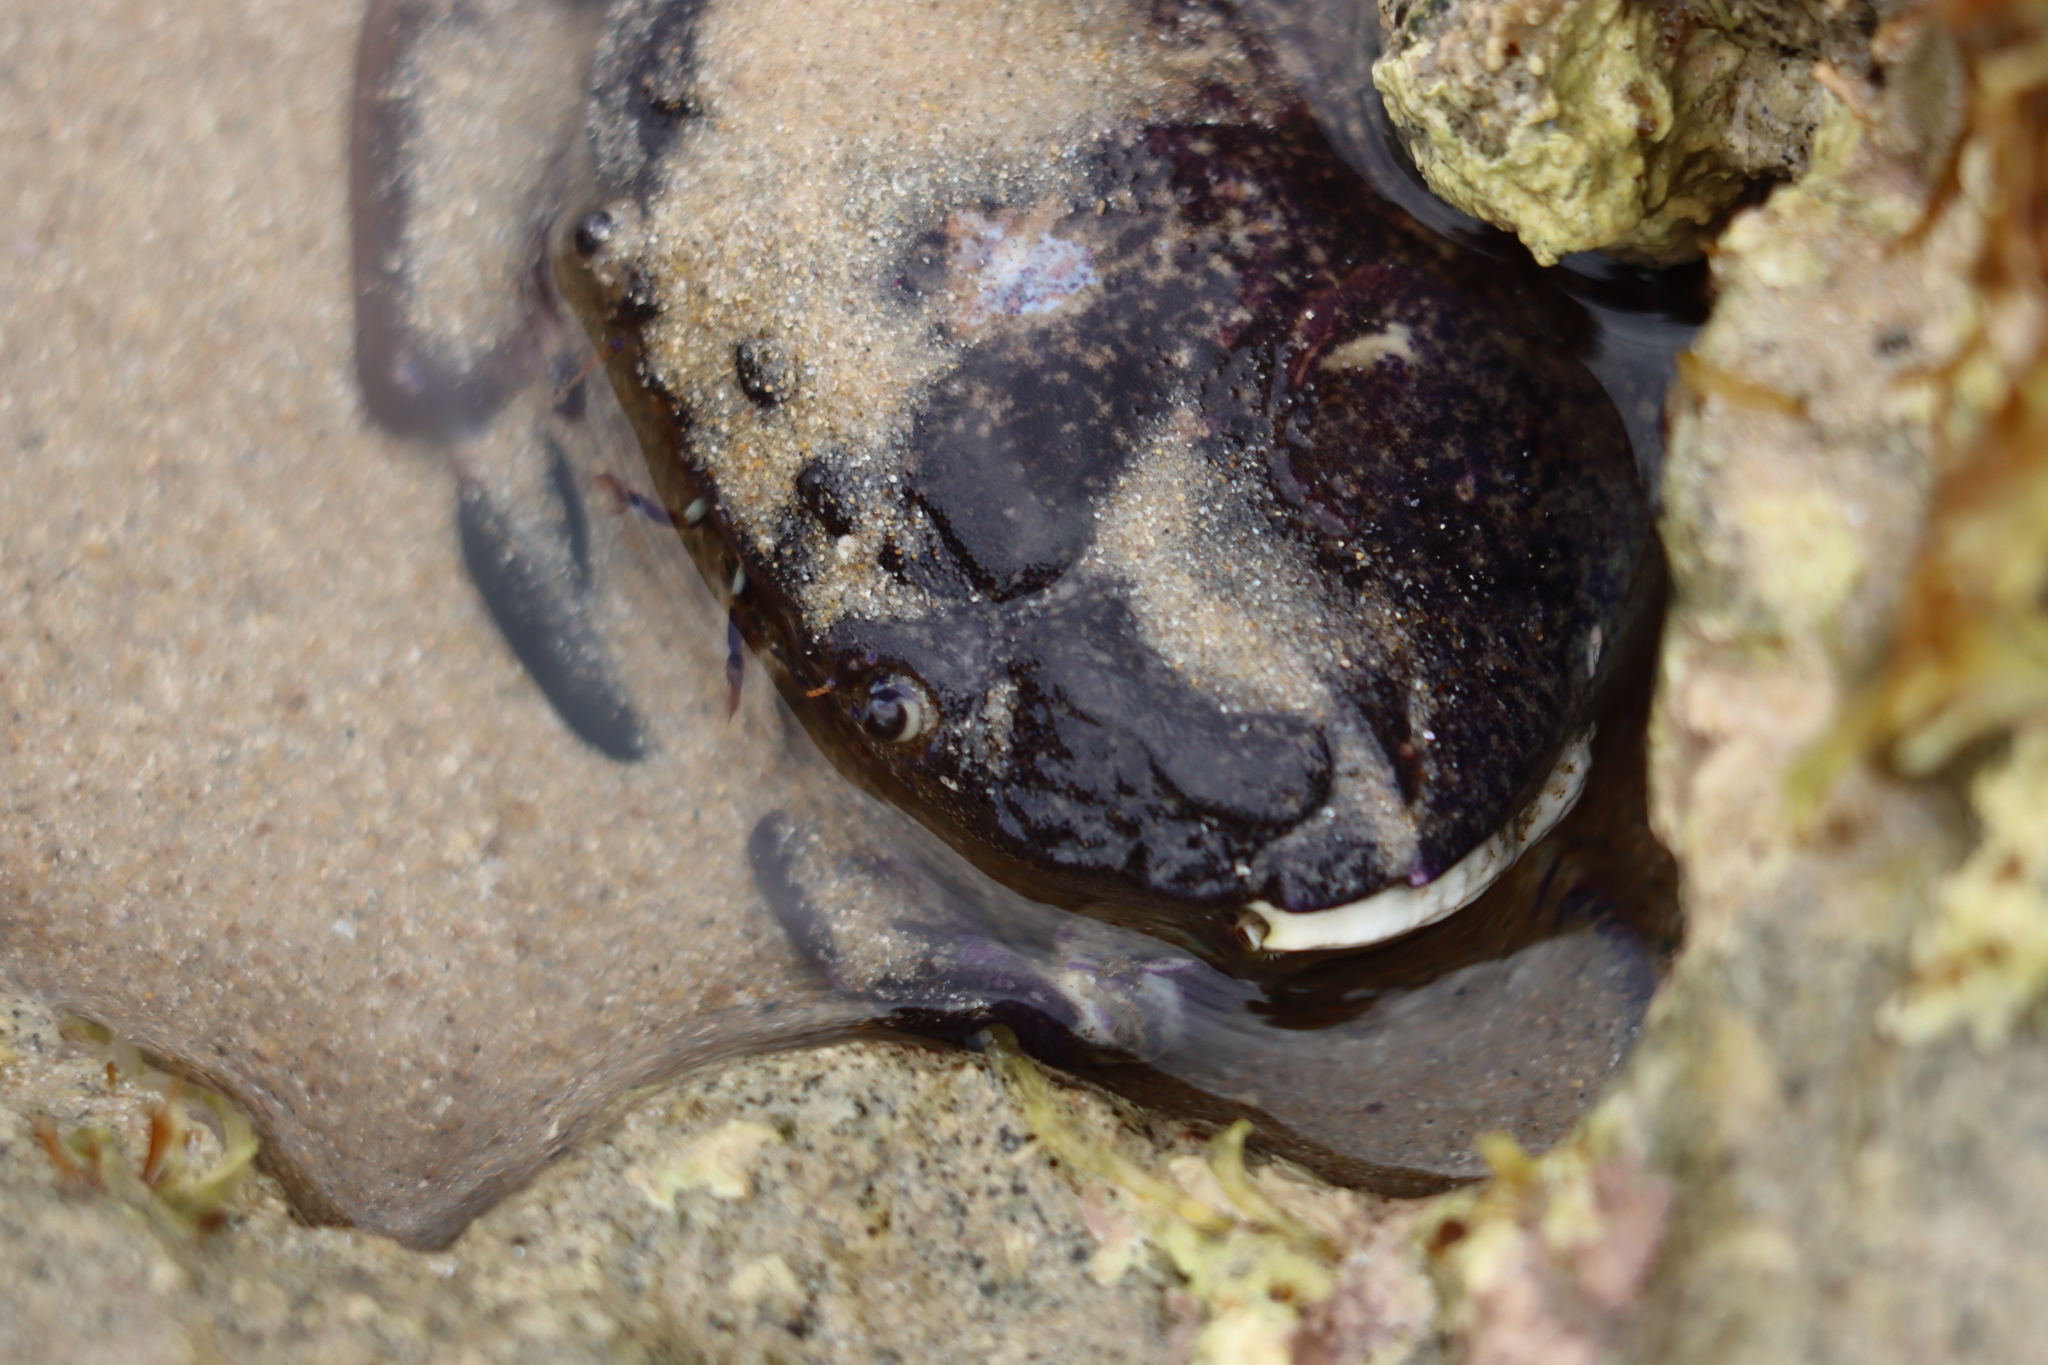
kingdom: Animalia
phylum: Arthropoda
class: Malacostraca
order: Decapoda
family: Oziidae
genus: Ozius
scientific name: Ozius truncatus
